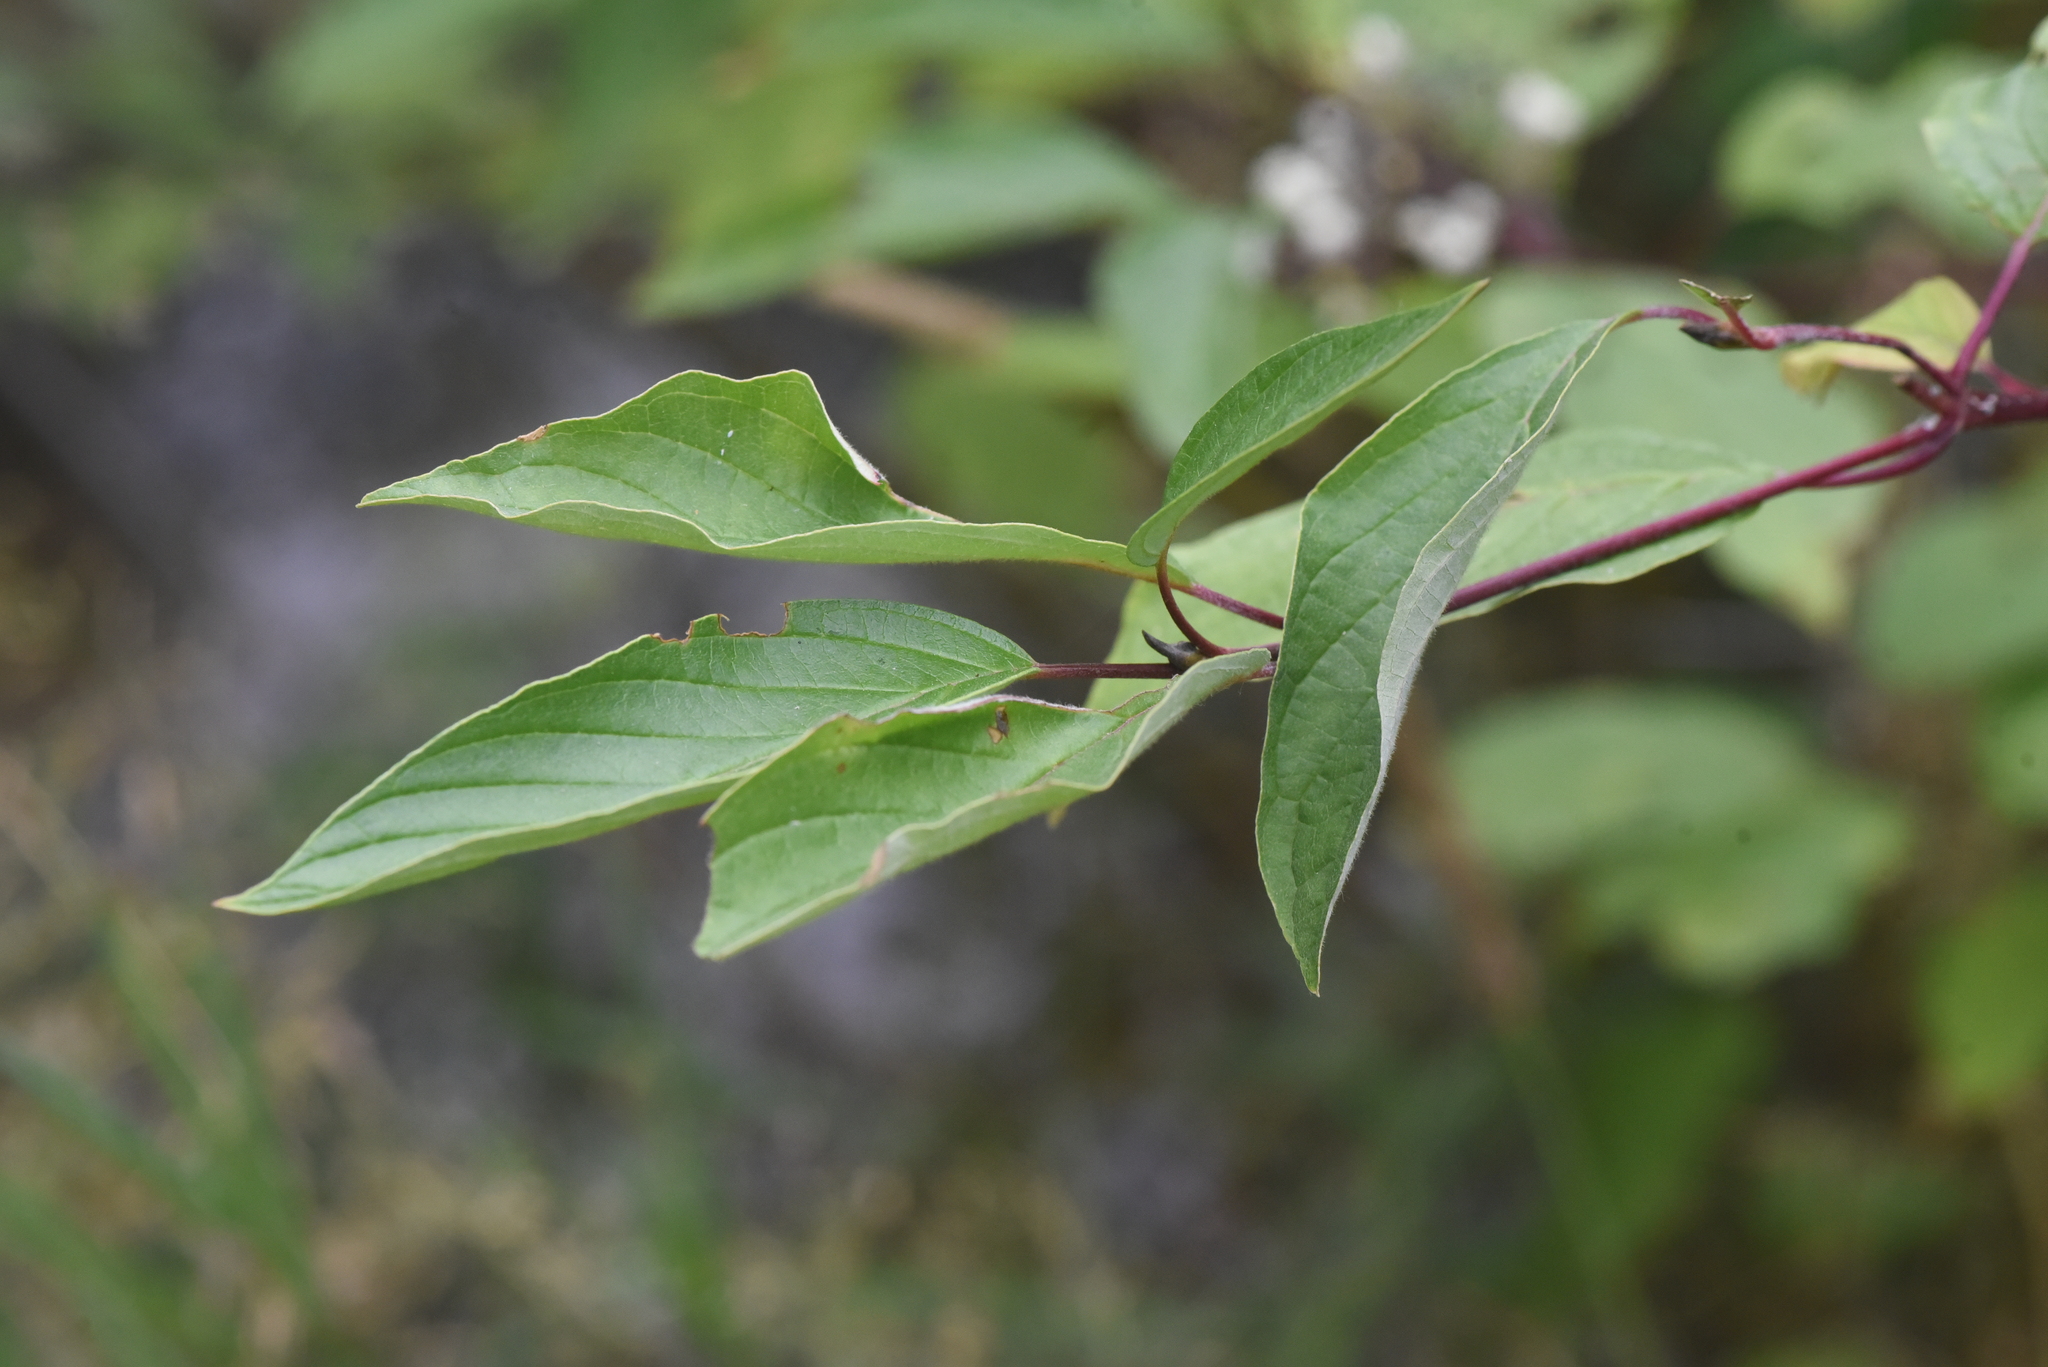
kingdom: Plantae
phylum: Tracheophyta
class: Magnoliopsida
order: Cornales
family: Cornaceae
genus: Cornus
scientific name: Cornus sericea
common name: Red-osier dogwood
